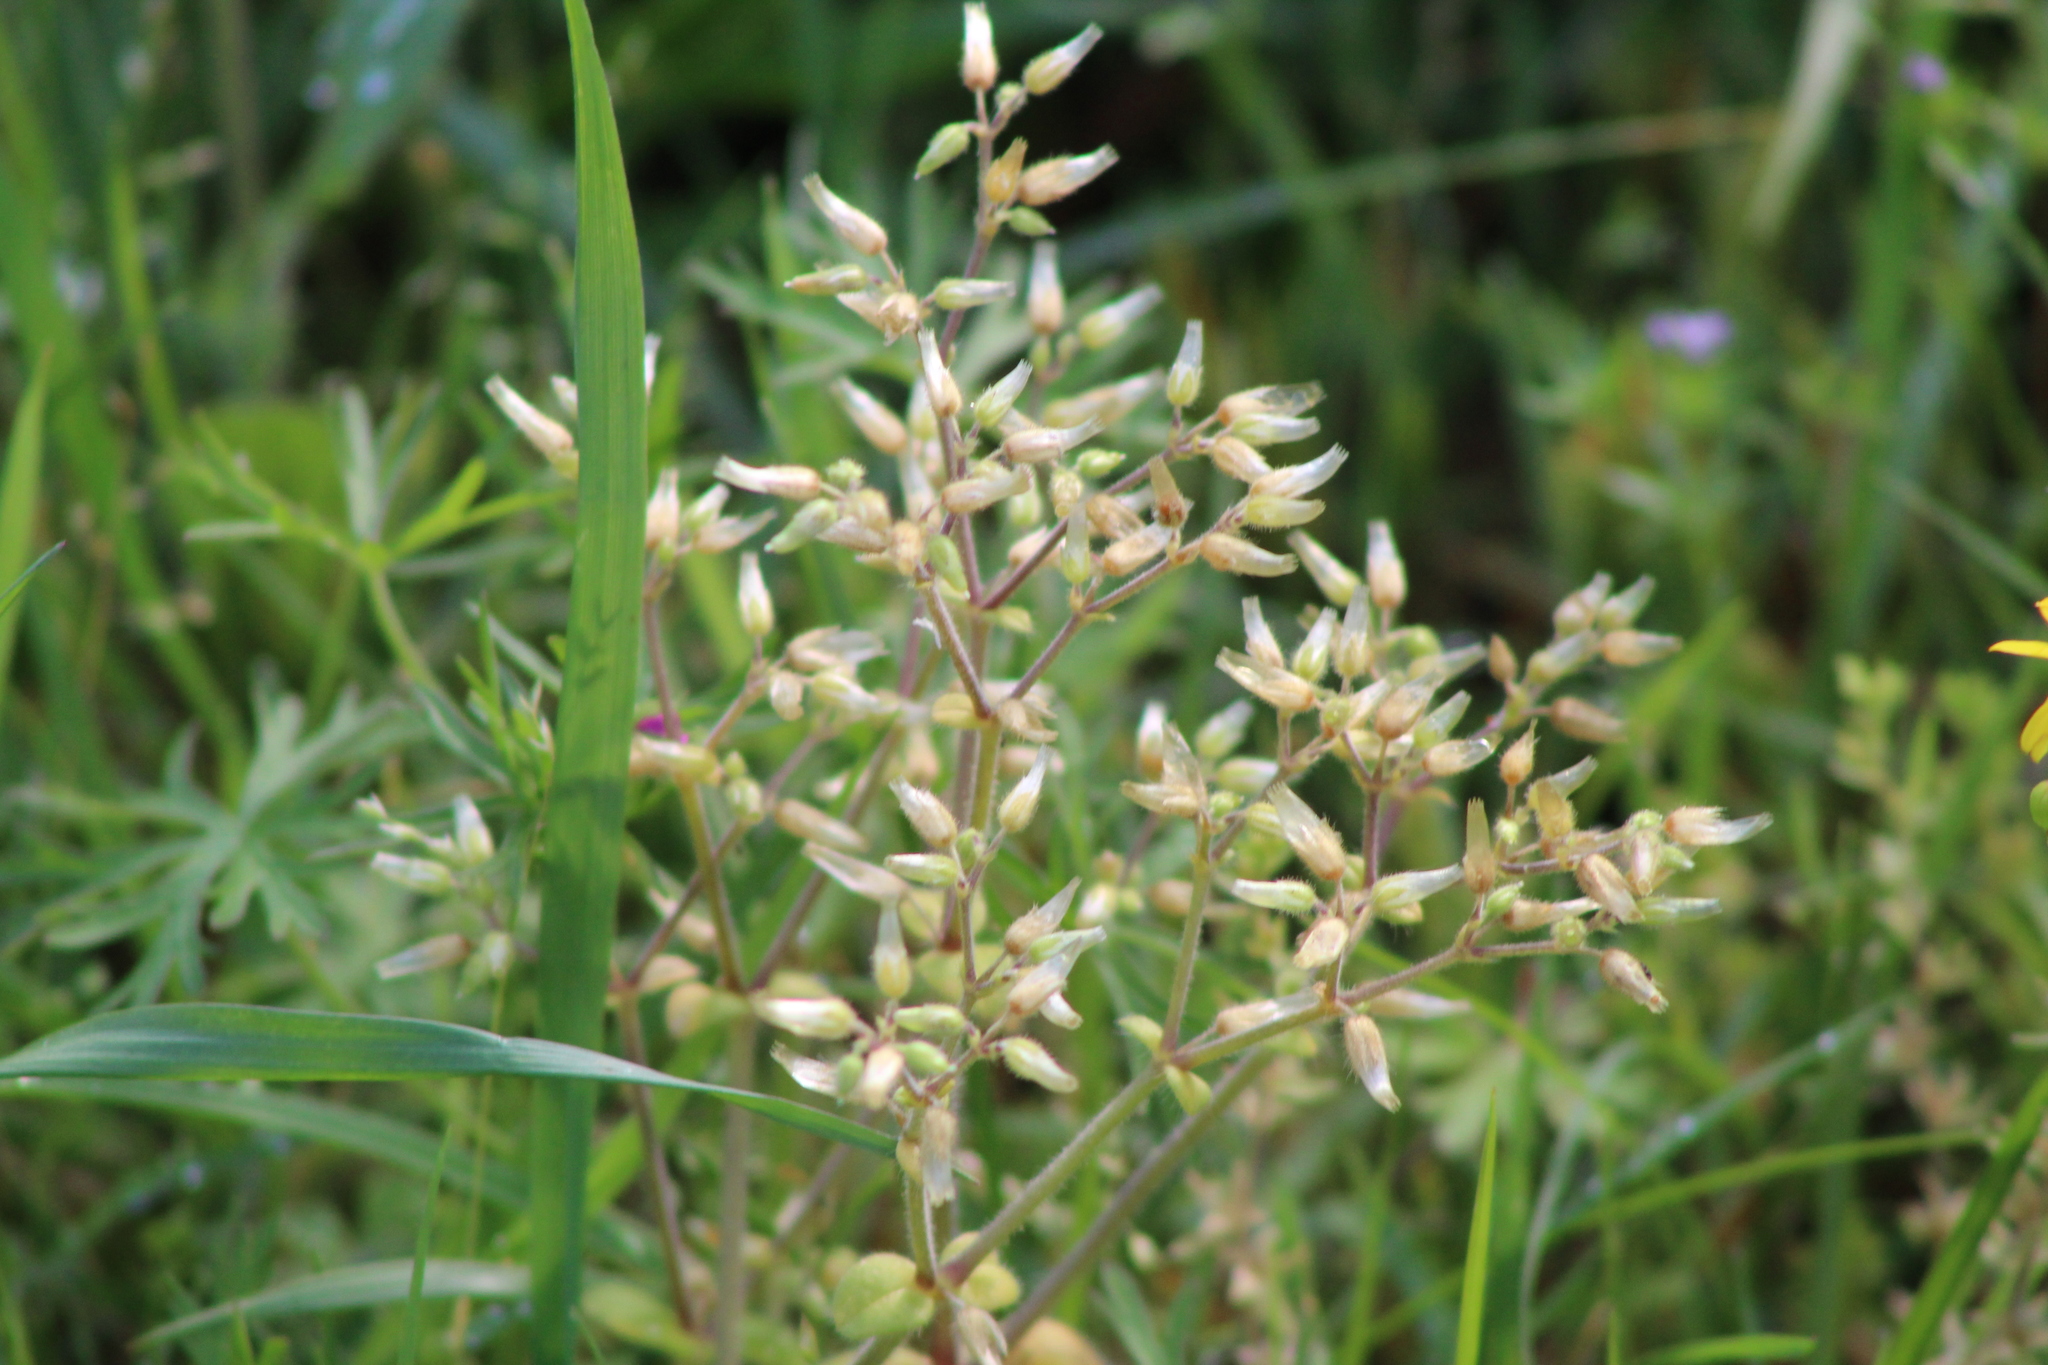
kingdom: Plantae
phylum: Tracheophyta
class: Magnoliopsida
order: Caryophyllales
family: Caryophyllaceae
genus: Cerastium
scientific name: Cerastium glomeratum
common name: Sticky chickweed
